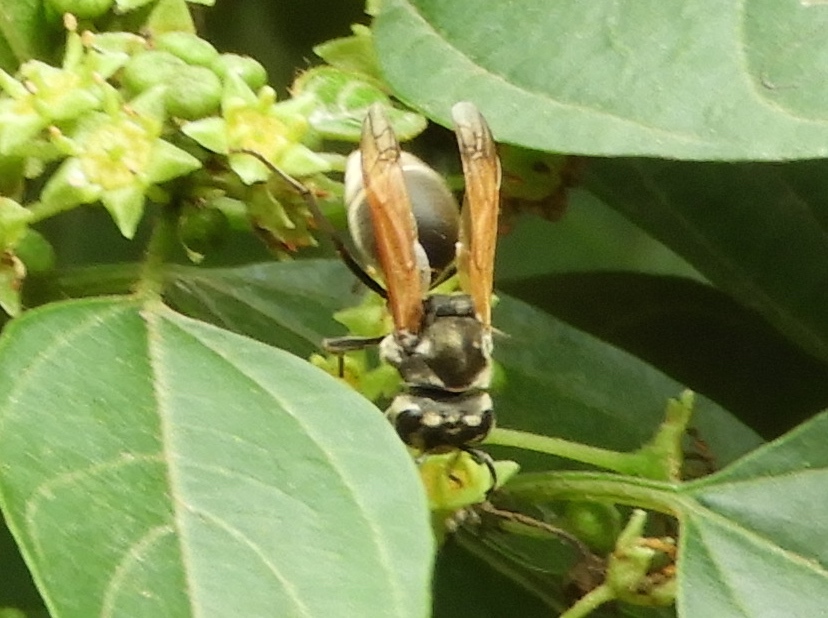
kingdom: Animalia
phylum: Arthropoda
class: Insecta
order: Hymenoptera
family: Vespidae
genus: Brachygastra
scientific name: Brachygastra mellifica
